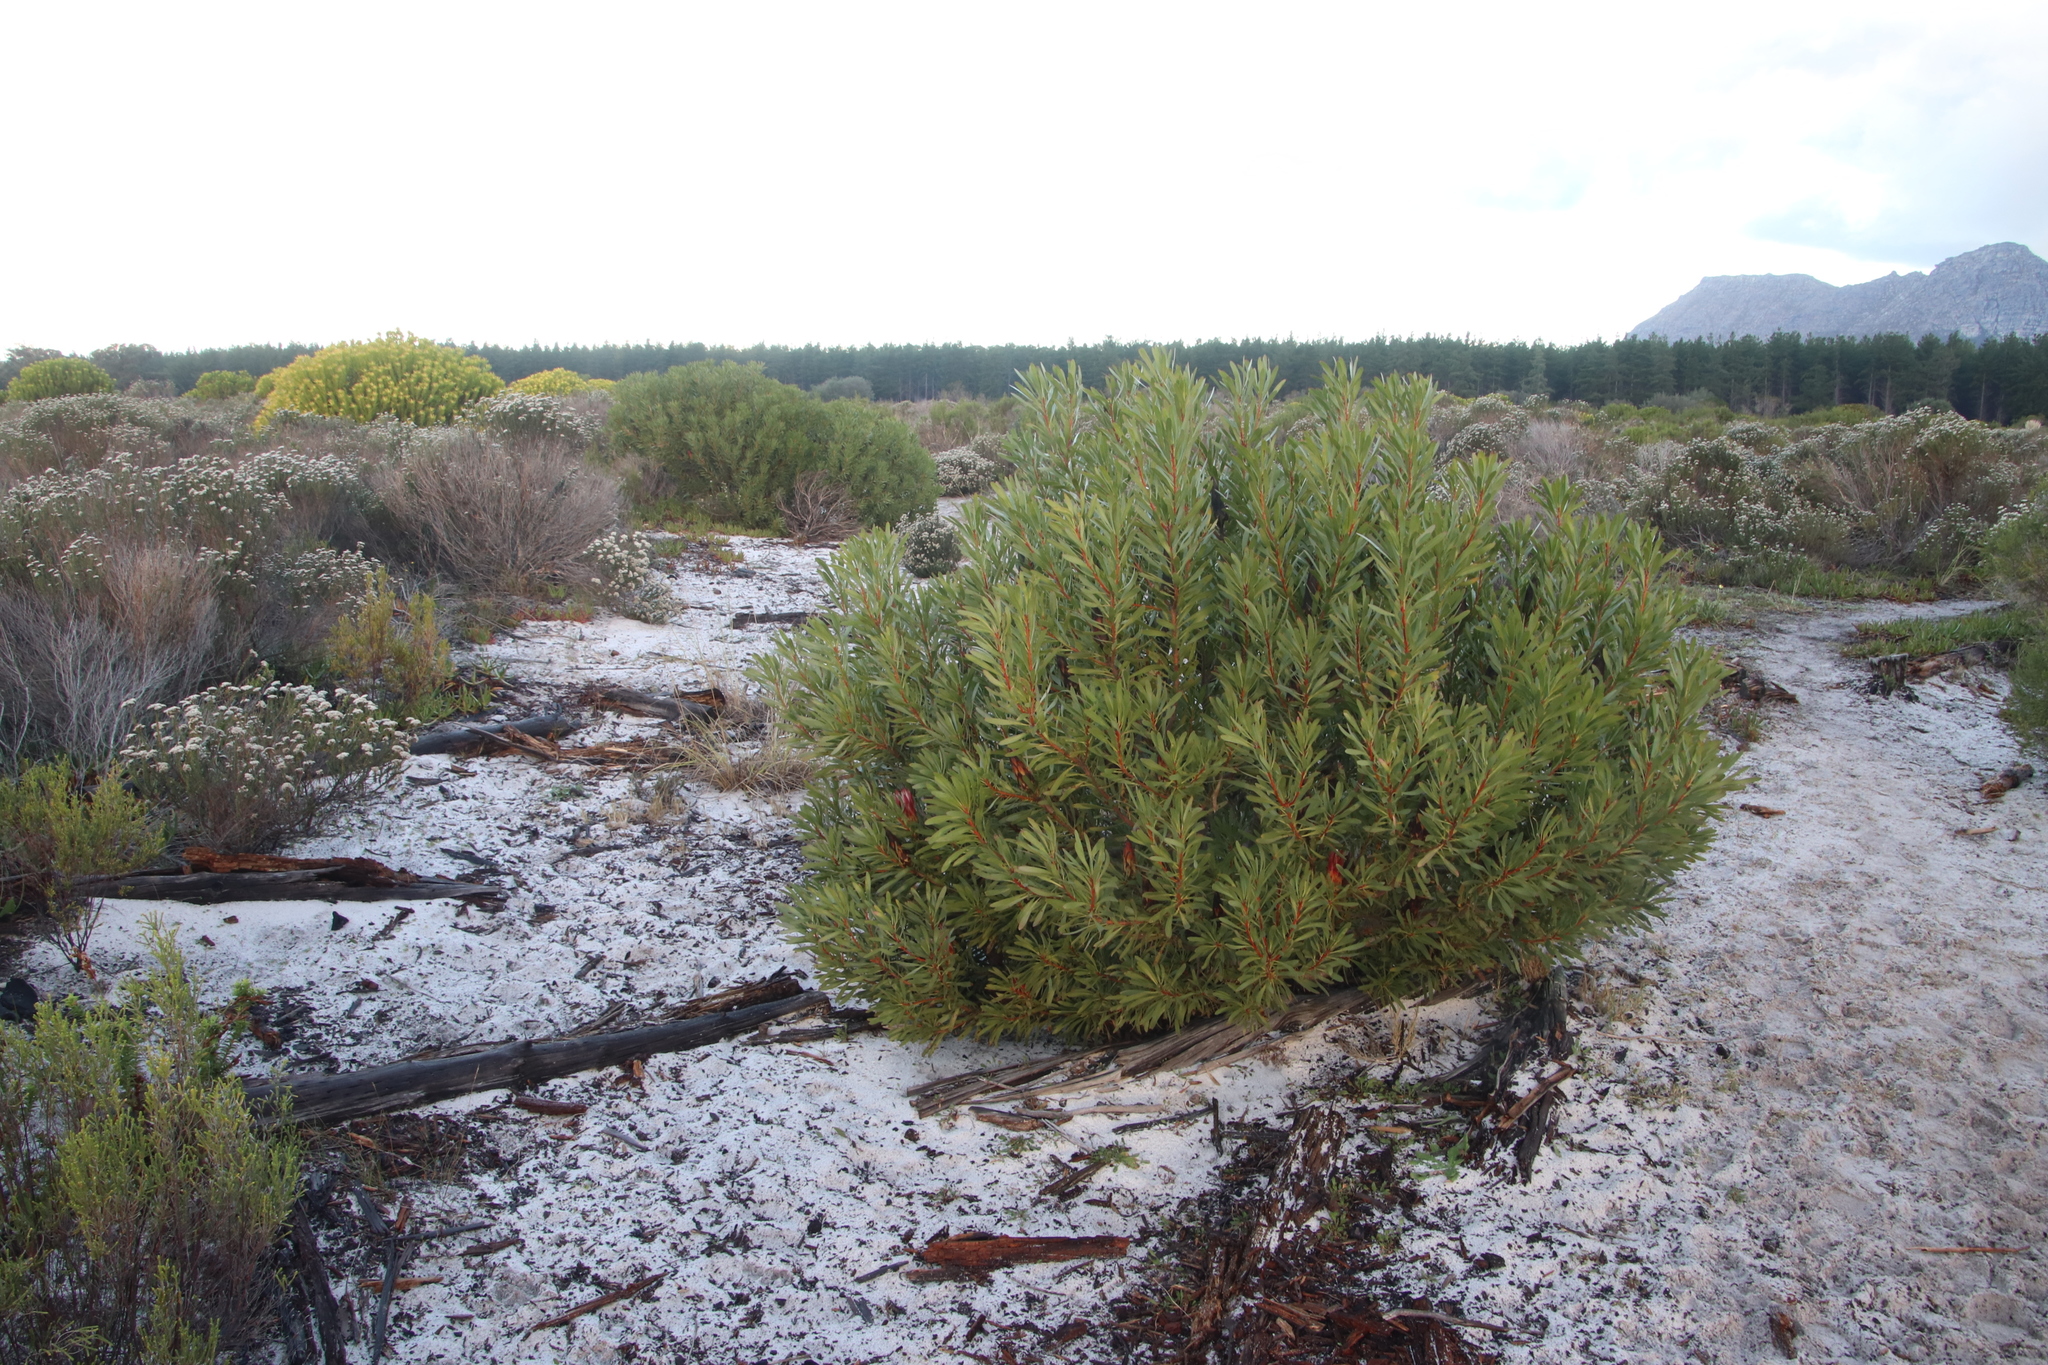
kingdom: Plantae
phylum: Tracheophyta
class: Magnoliopsida
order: Proteales
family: Proteaceae
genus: Protea
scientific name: Protea repens
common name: Sugarbush
